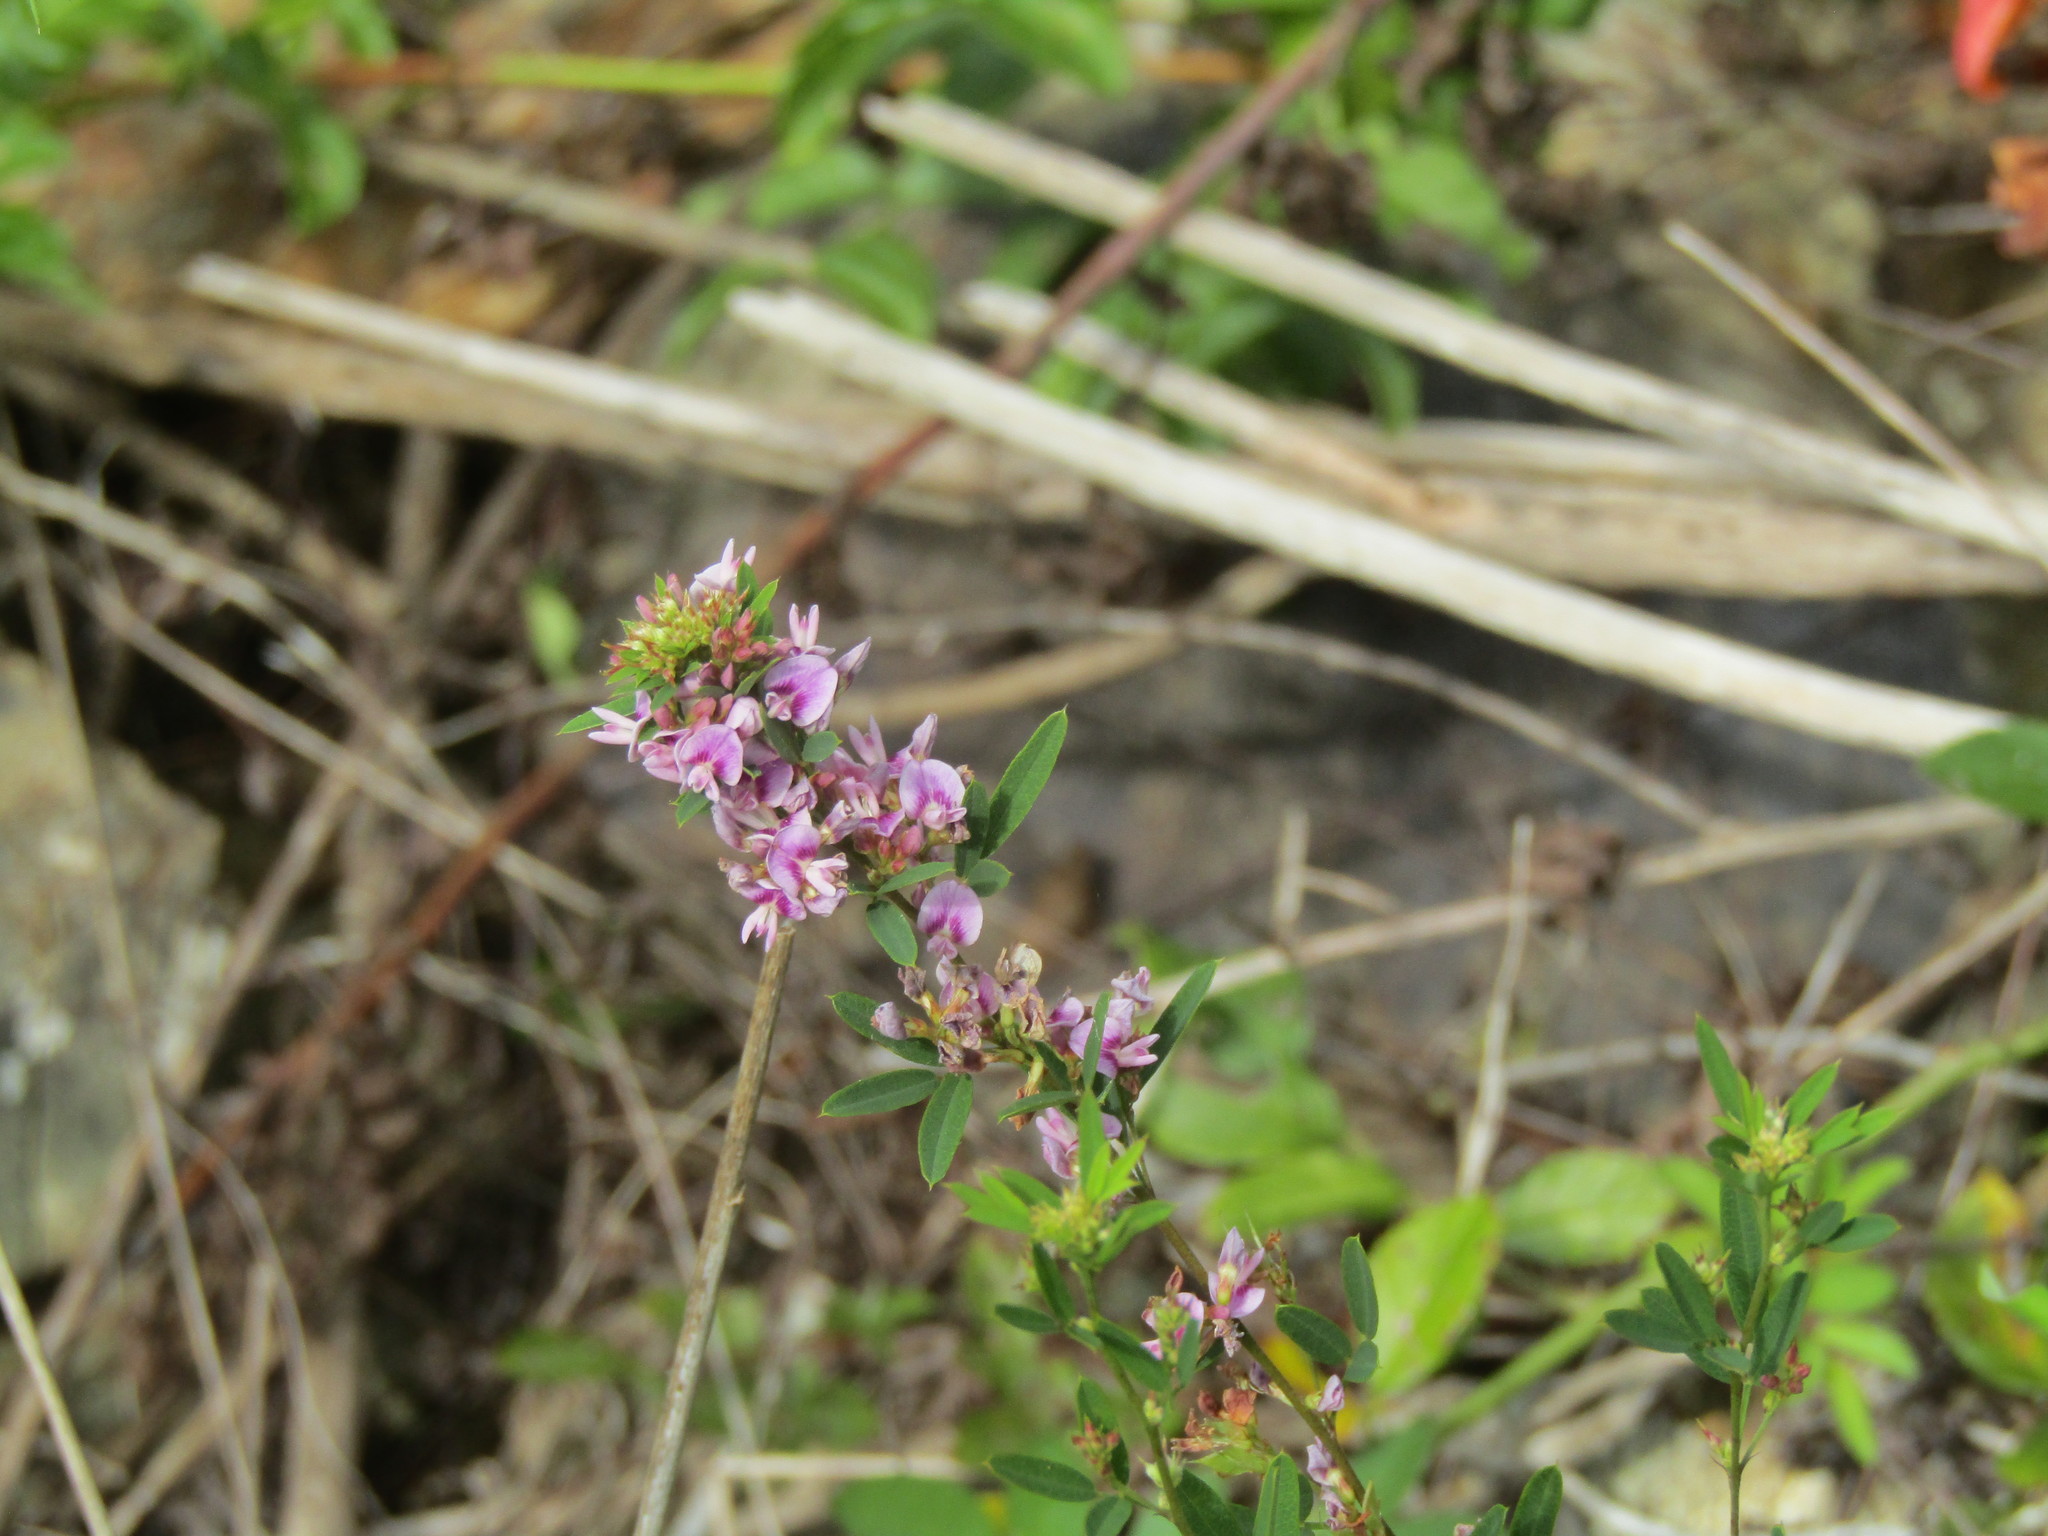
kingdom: Plantae
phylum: Tracheophyta
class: Magnoliopsida
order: Fabales
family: Fabaceae
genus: Lespedeza
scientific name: Lespedeza virginica
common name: Slender bush-clover
